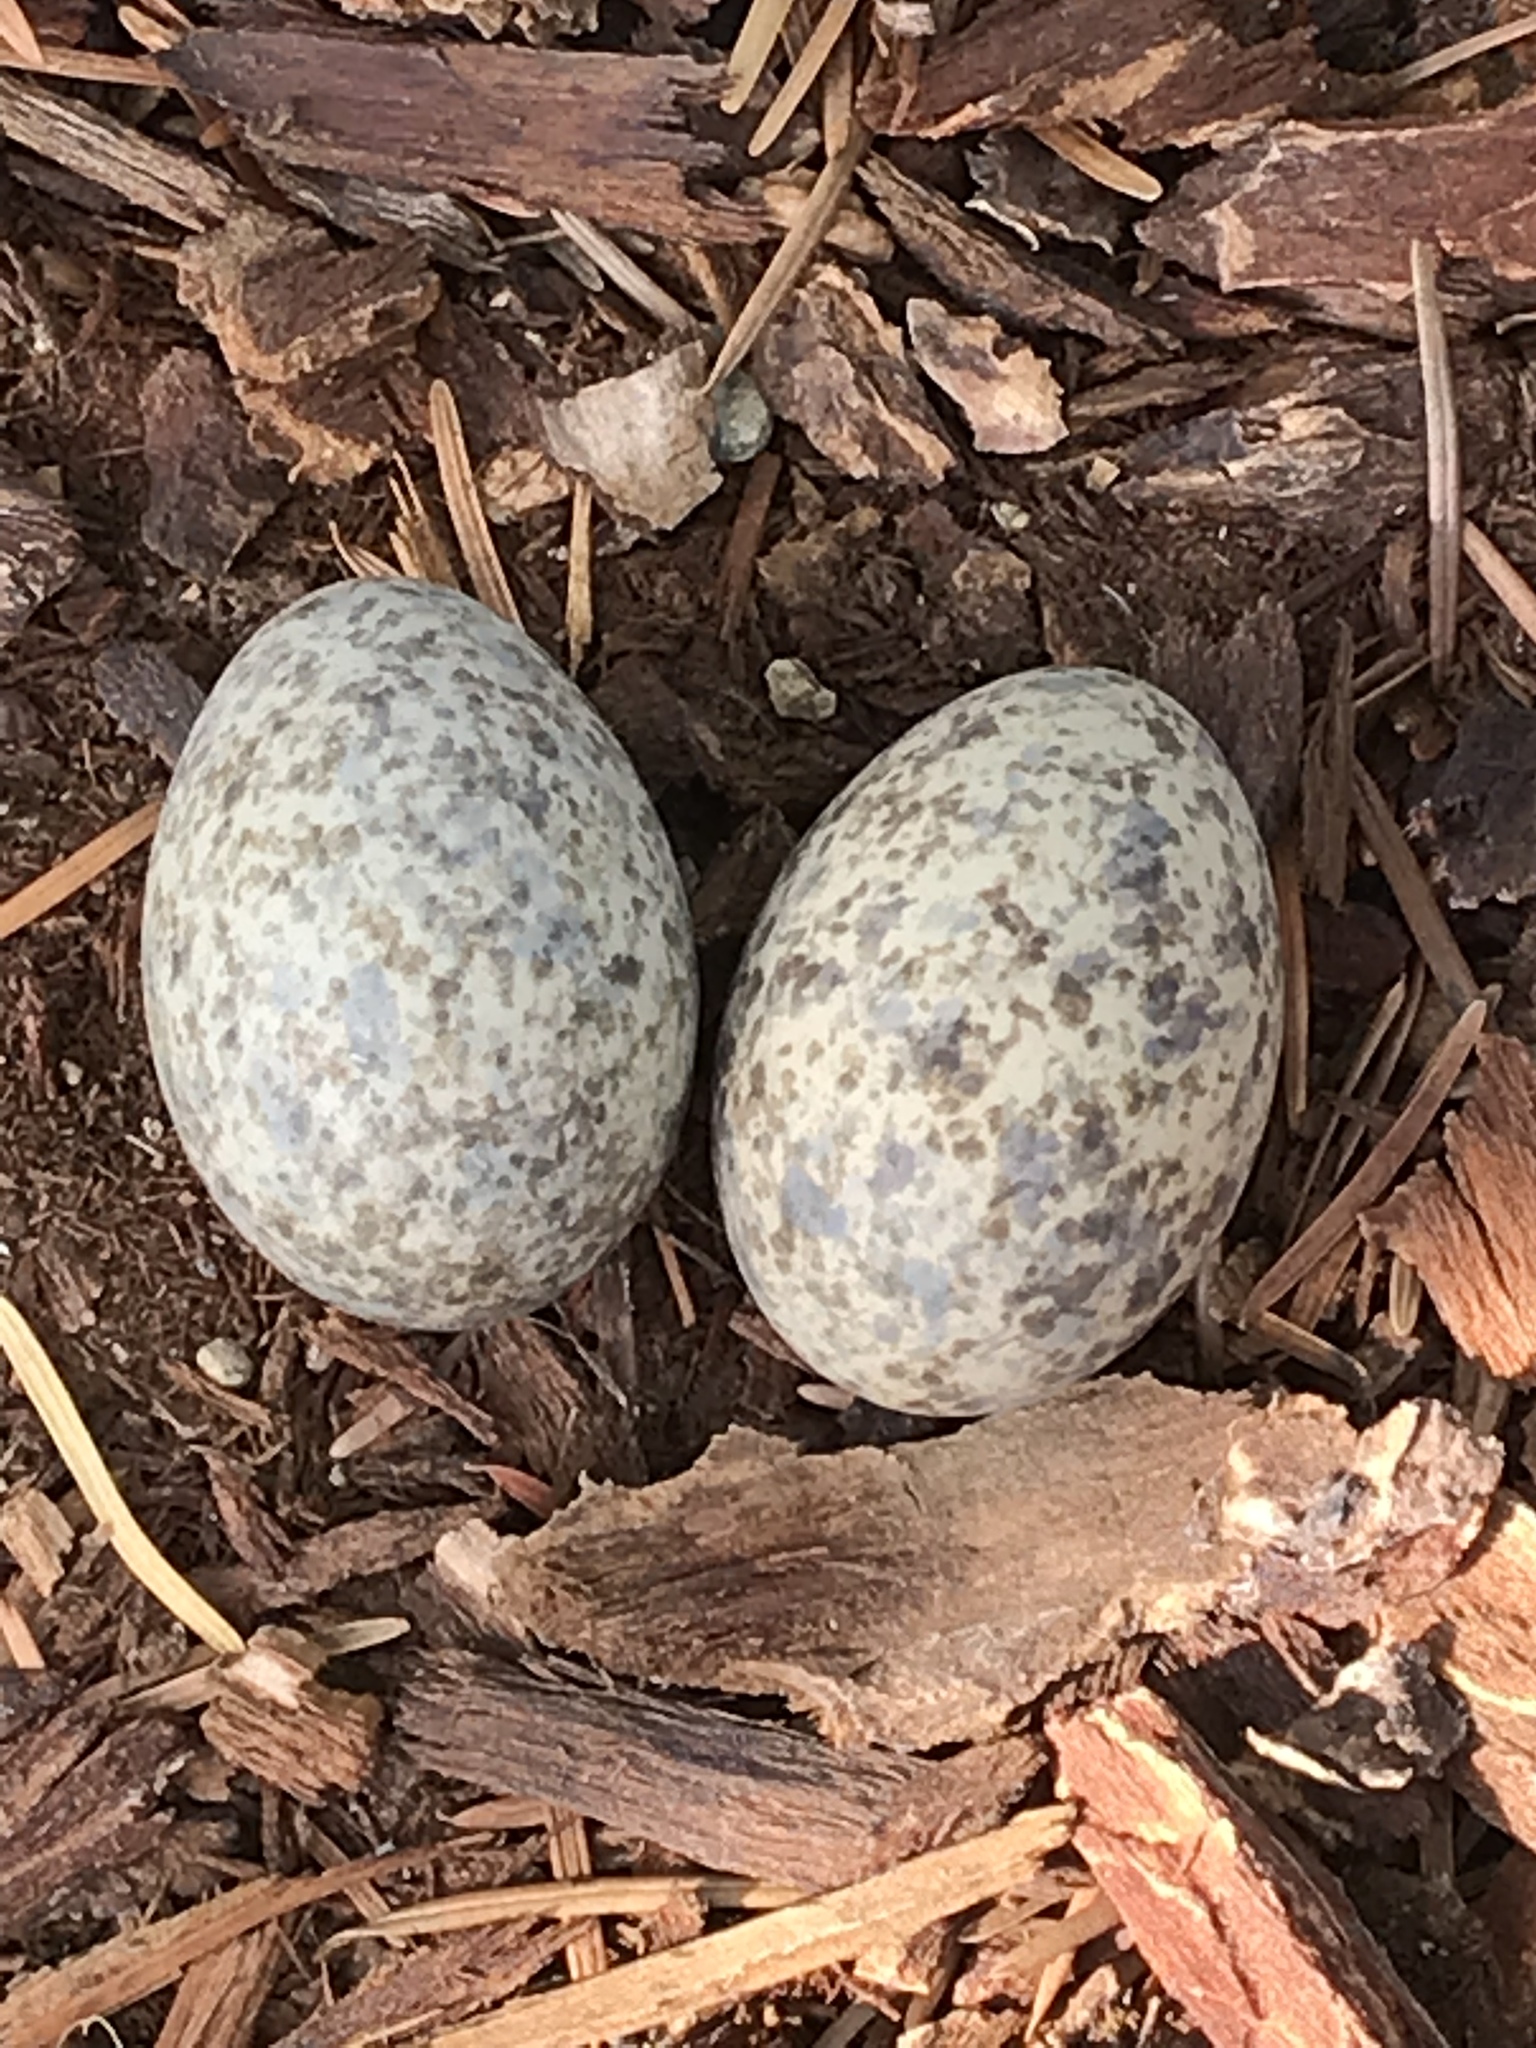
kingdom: Animalia
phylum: Chordata
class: Aves
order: Caprimulgiformes
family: Caprimulgidae
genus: Chordeiles
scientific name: Chordeiles minor
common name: Common nighthawk
